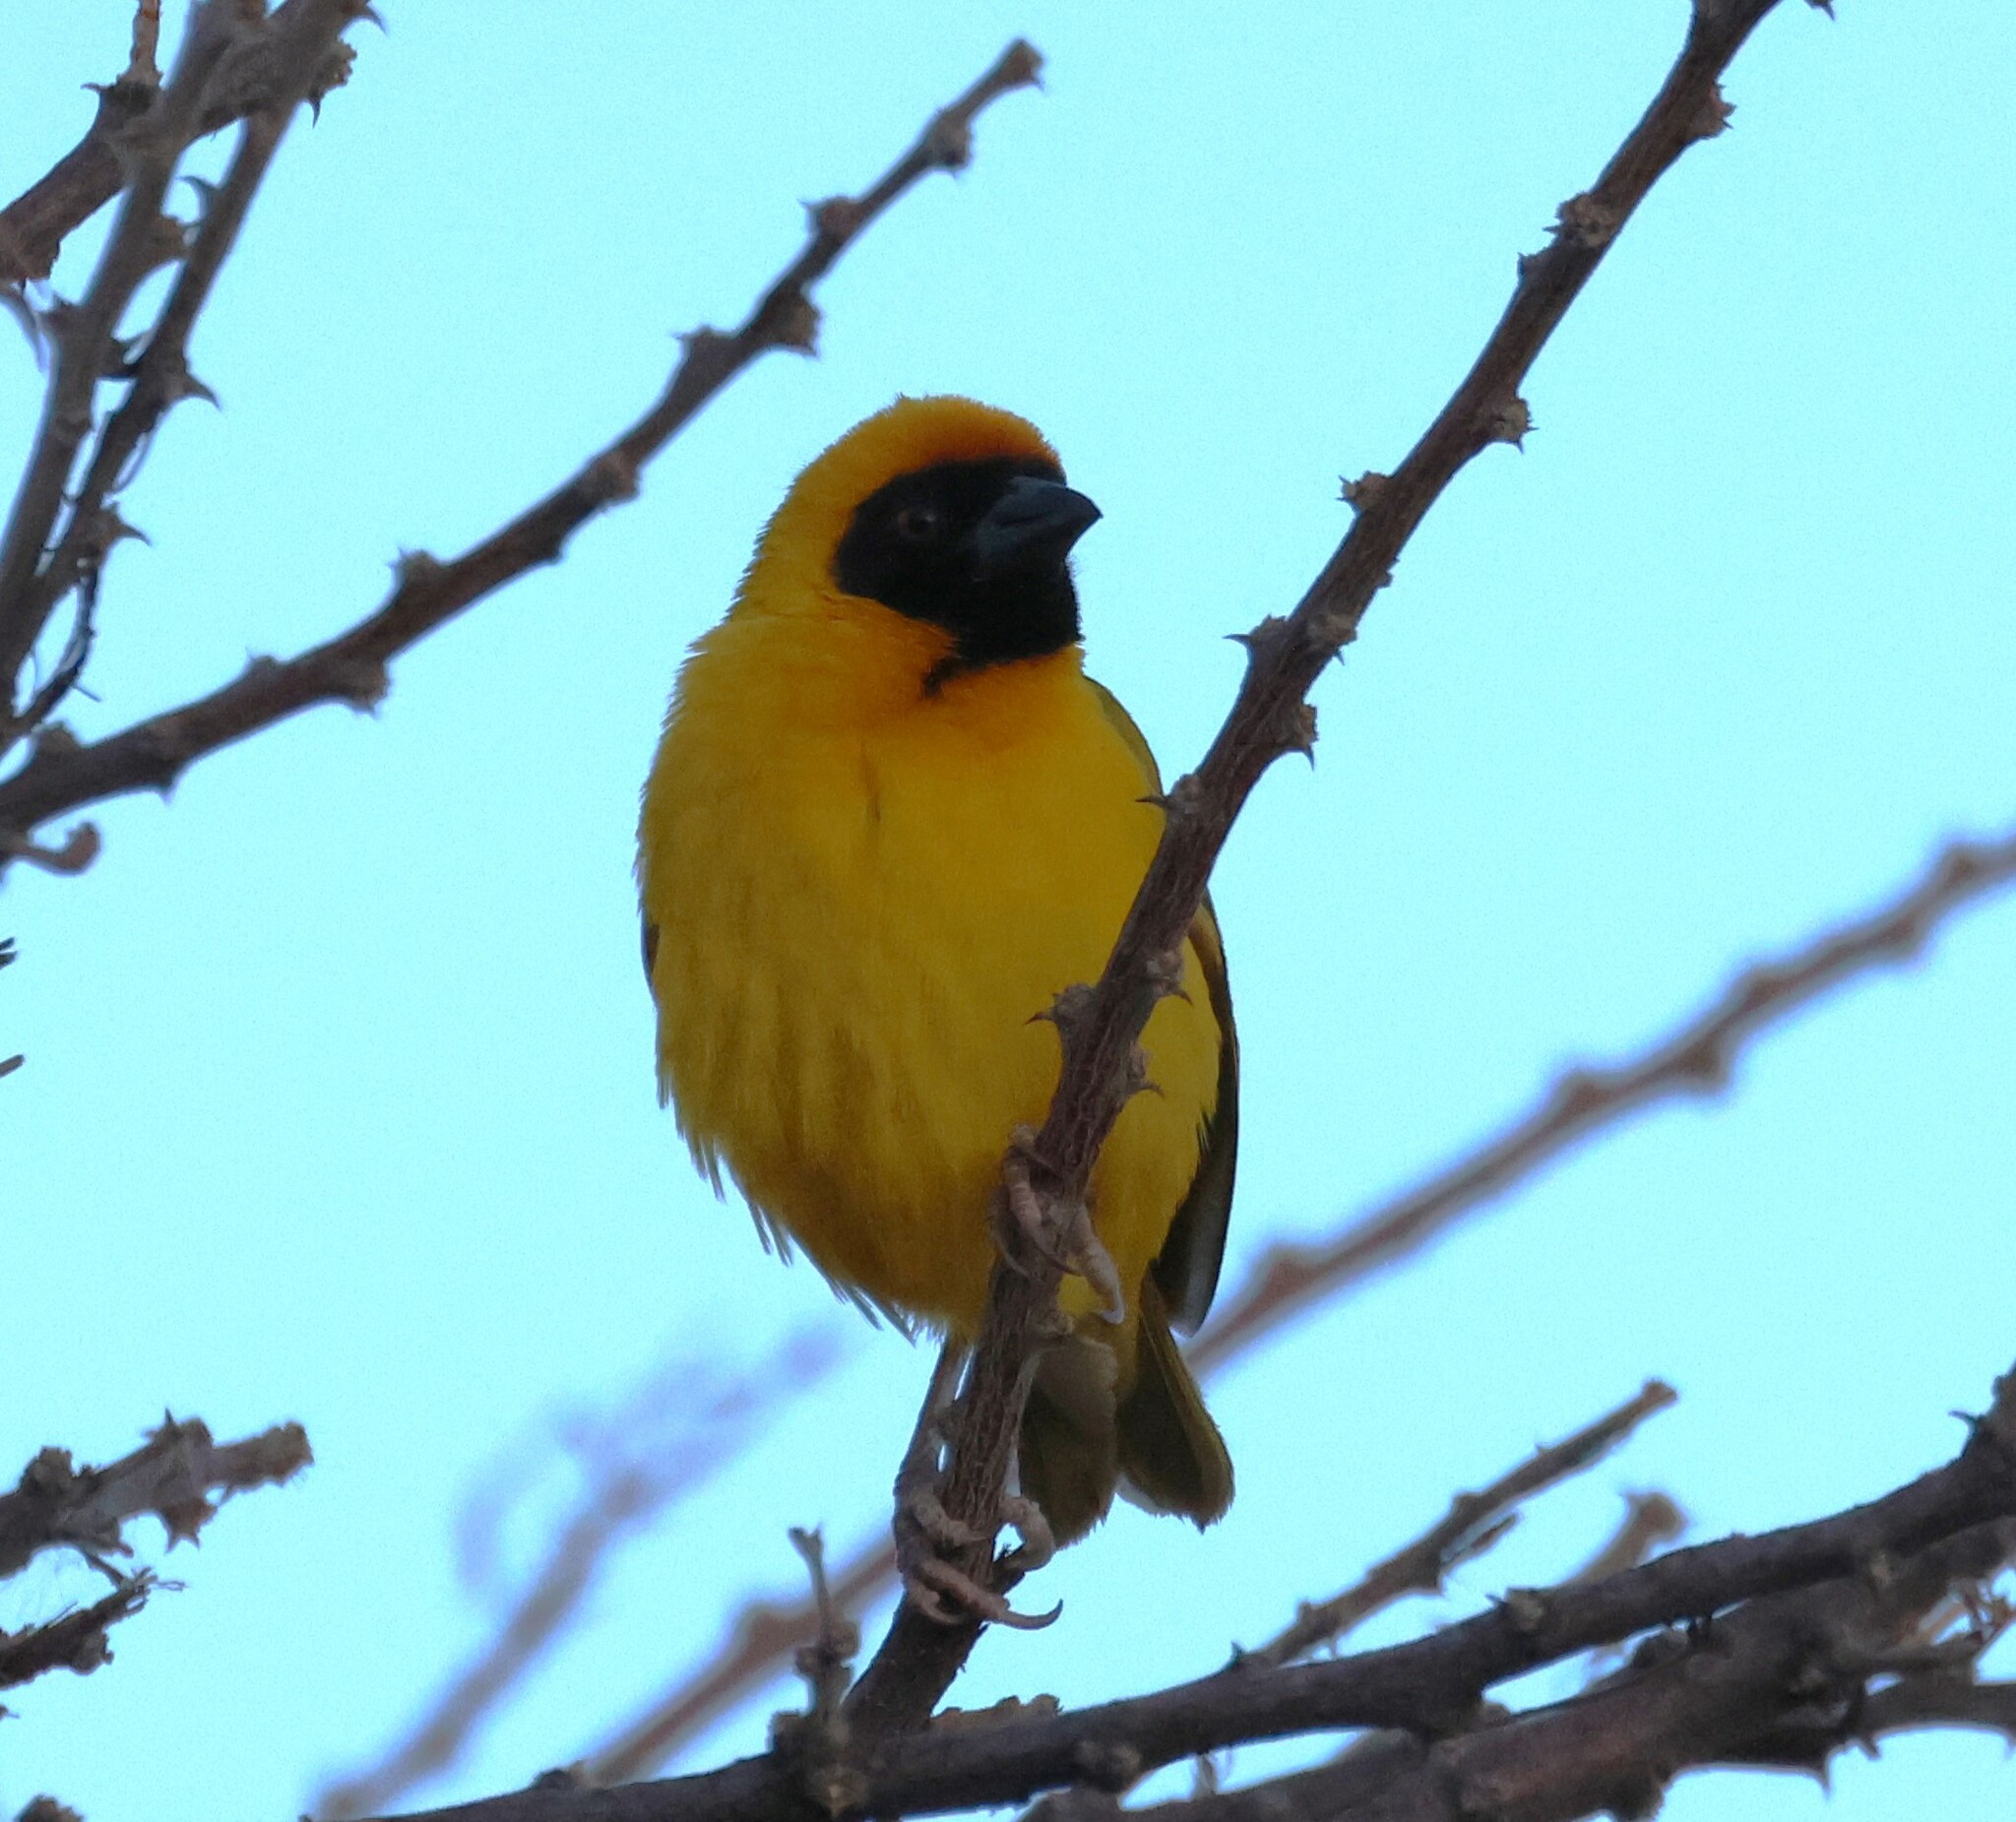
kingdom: Animalia
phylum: Chordata
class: Aves
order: Passeriformes
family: Ploceidae
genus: Ploceus
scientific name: Ploceus velatus
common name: Southern masked weaver
